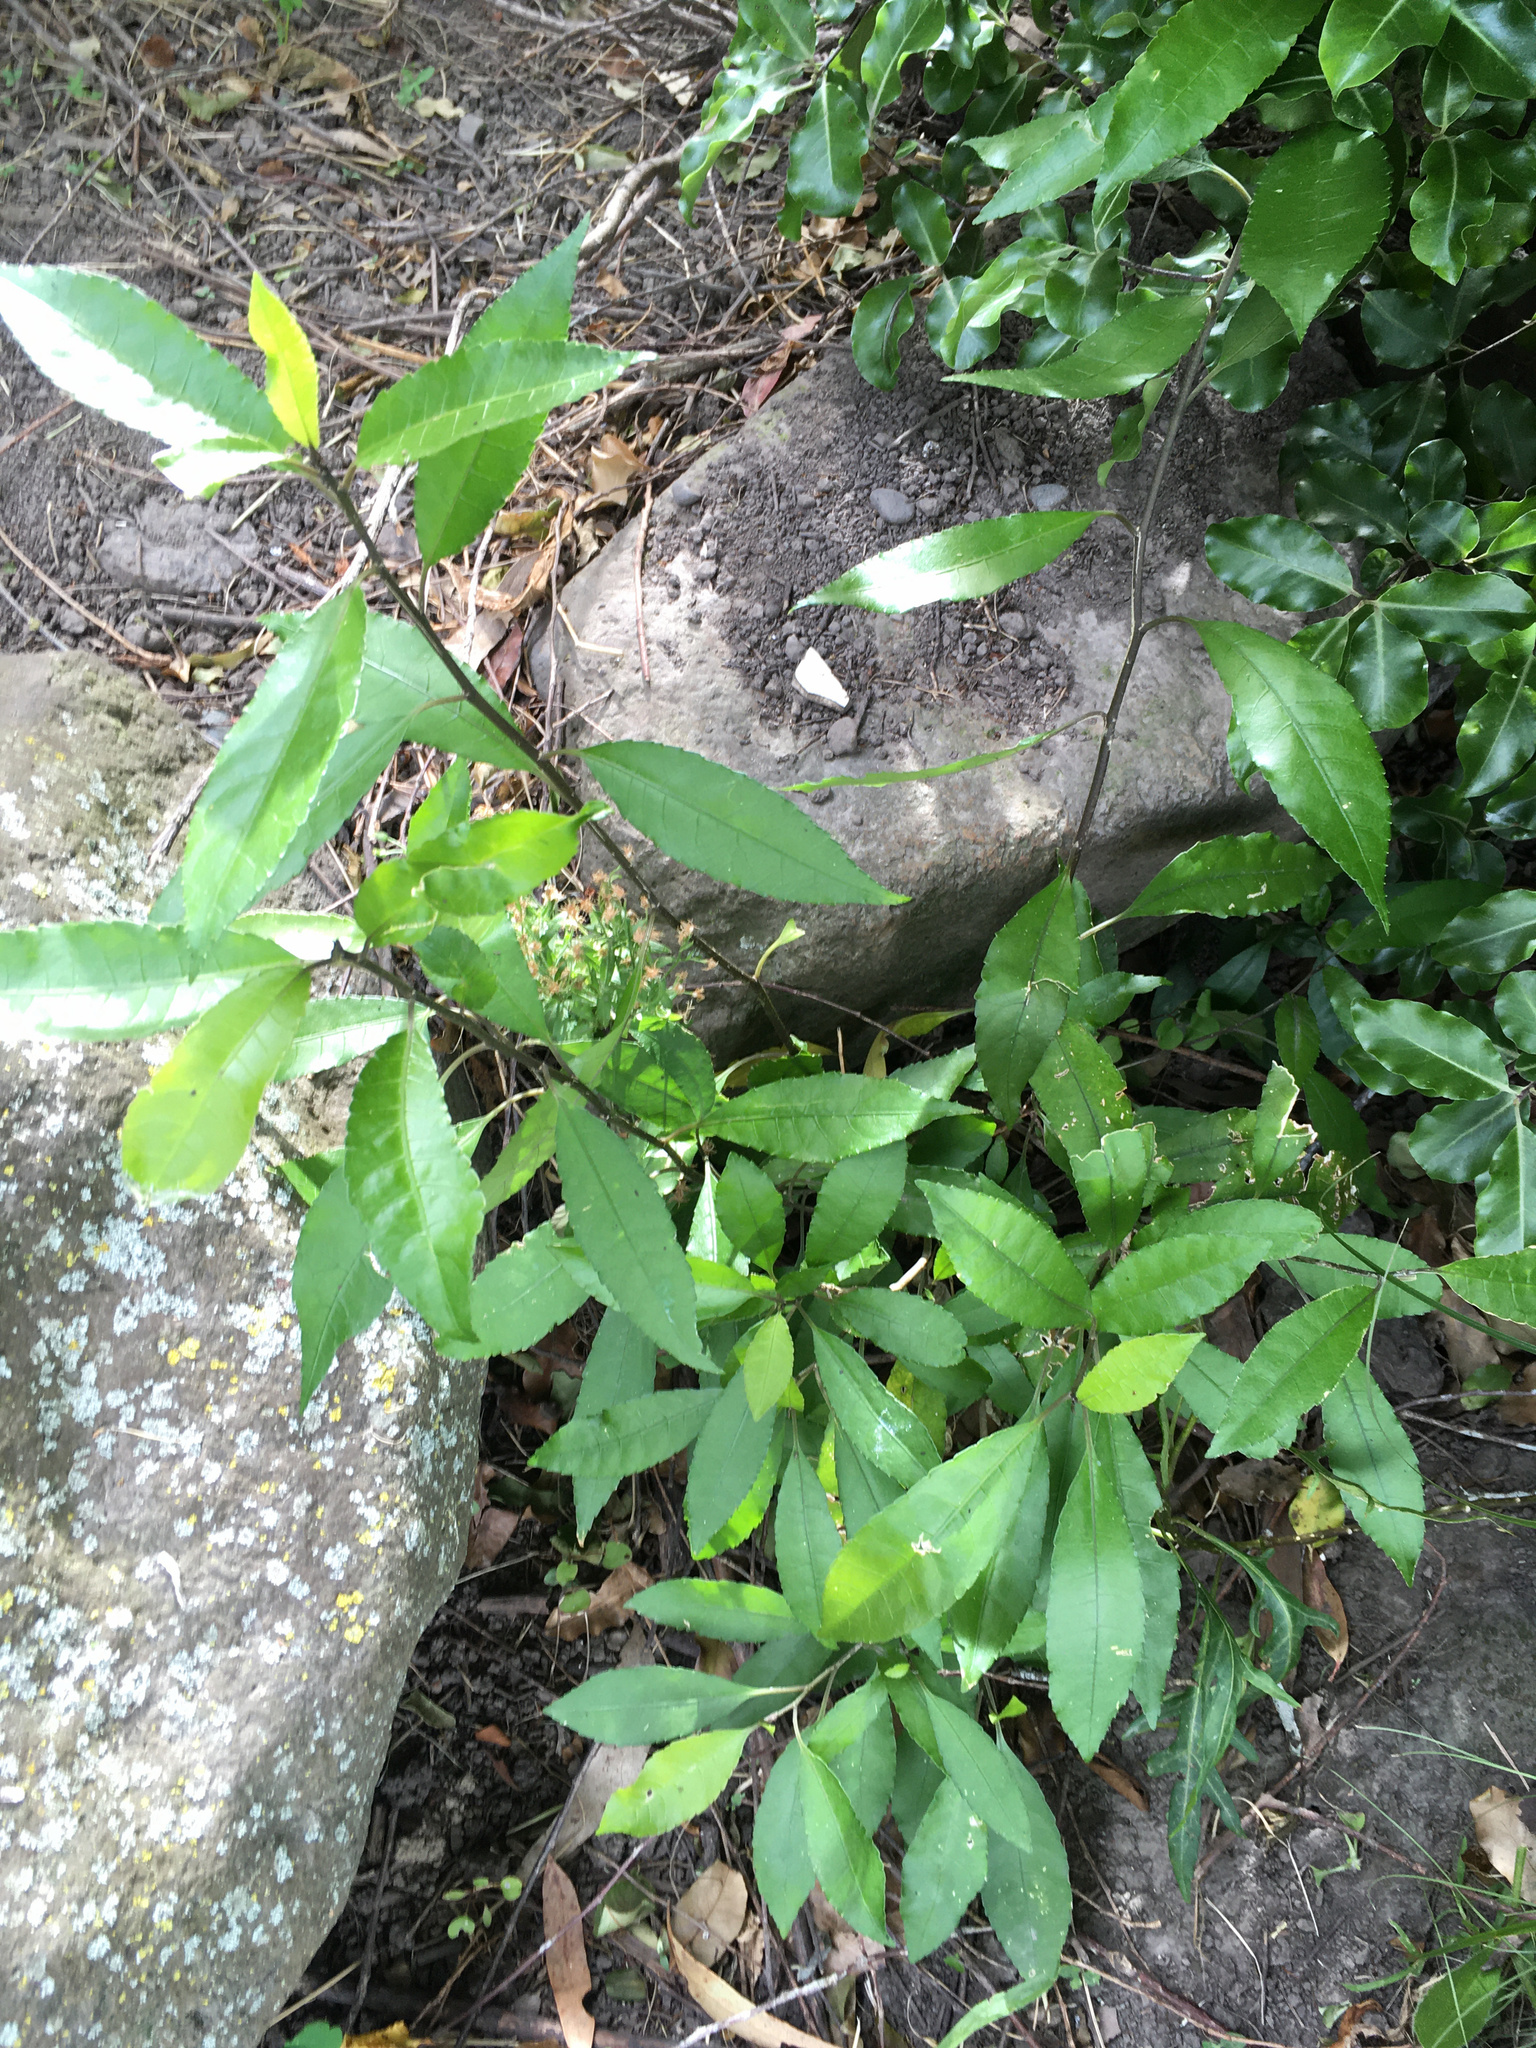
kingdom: Plantae
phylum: Tracheophyta
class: Magnoliopsida
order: Malpighiales
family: Violaceae
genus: Melicytus
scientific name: Melicytus ramiflorus
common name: Mahoe
